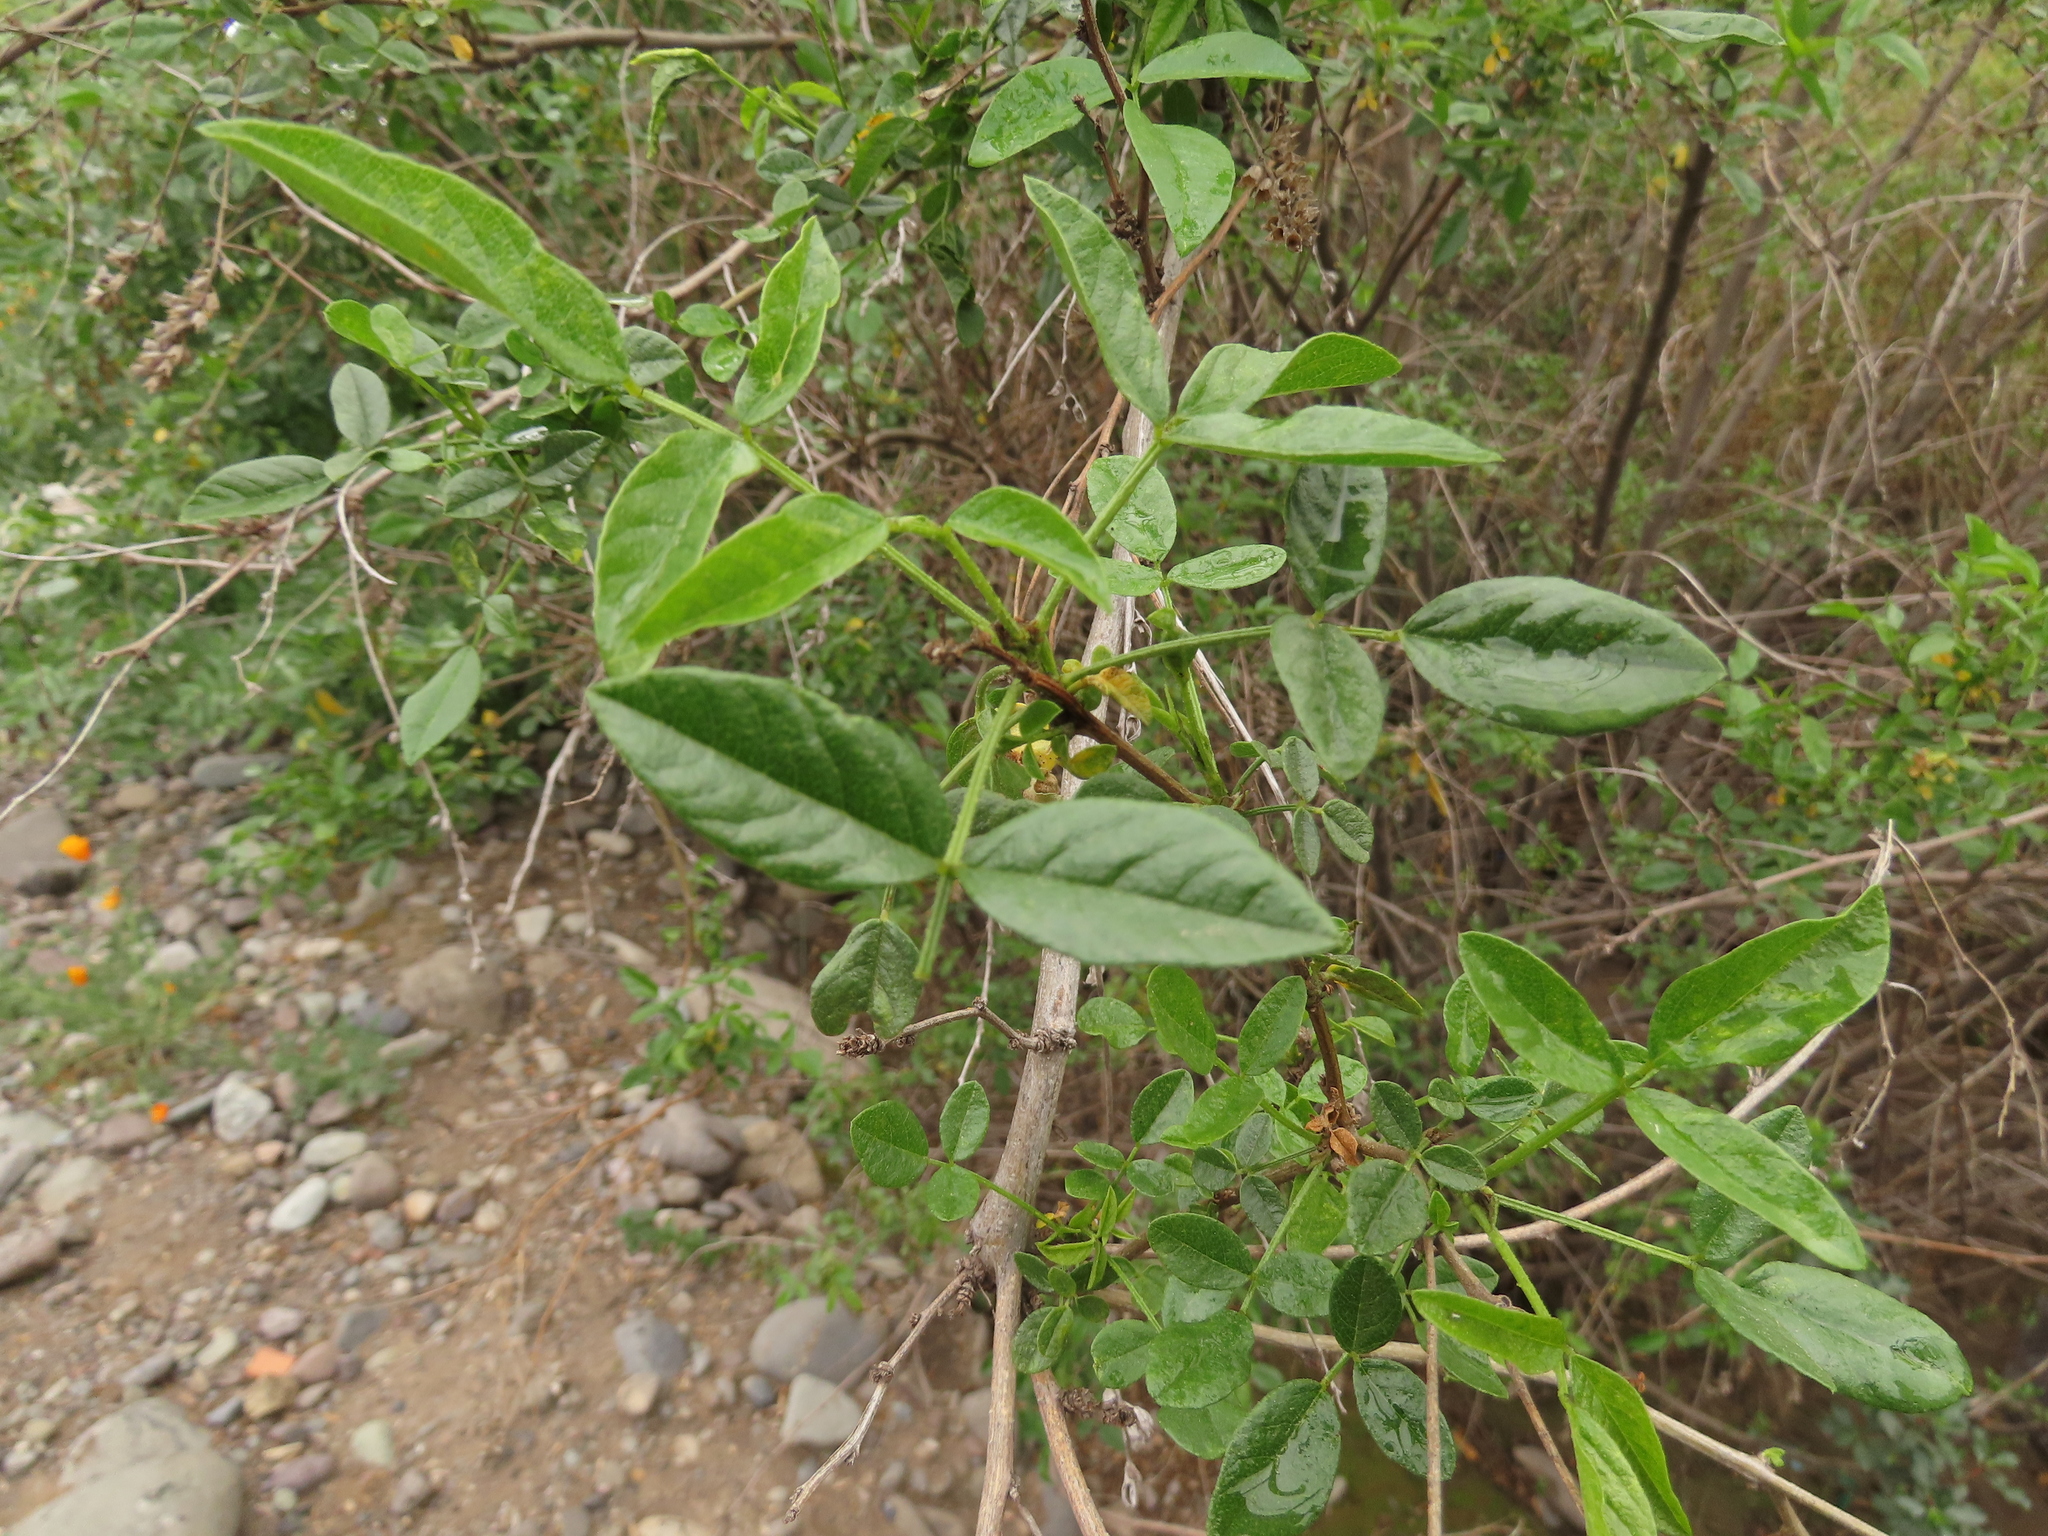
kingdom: Plantae
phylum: Tracheophyta
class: Magnoliopsida
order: Fabales
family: Fabaceae
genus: Psoralea
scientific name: Psoralea Otholobium glandulosum
